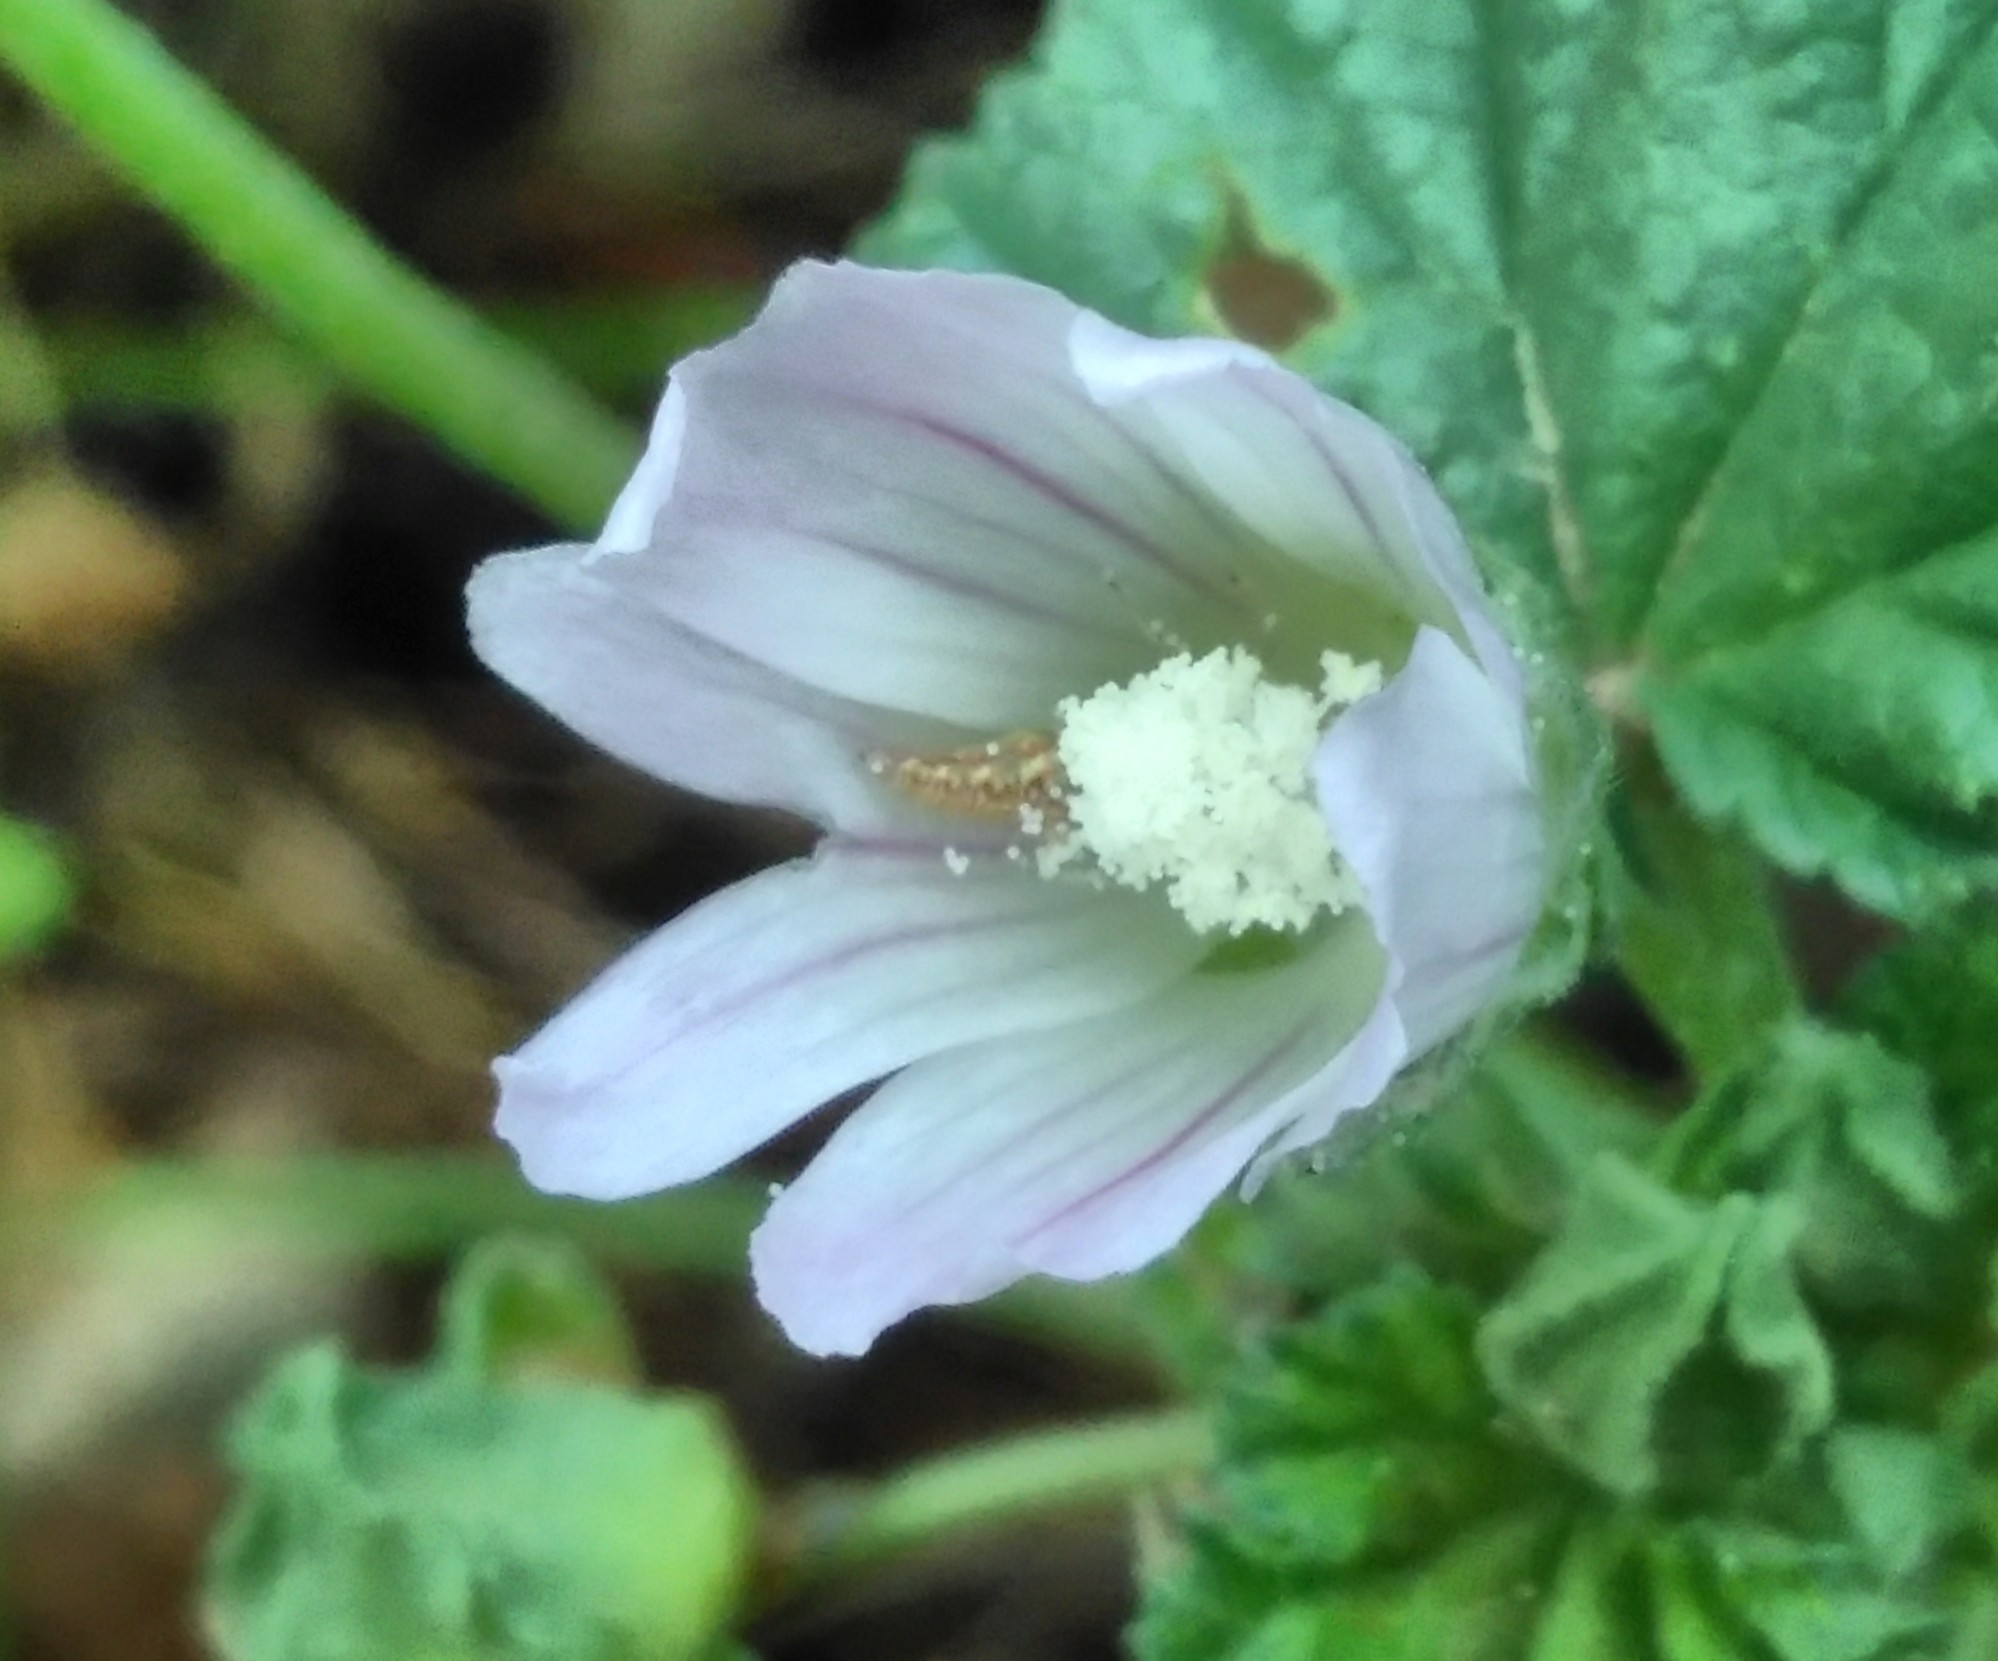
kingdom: Plantae
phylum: Tracheophyta
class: Magnoliopsida
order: Malvales
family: Malvaceae
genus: Malva
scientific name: Malva neglecta
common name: Common mallow
